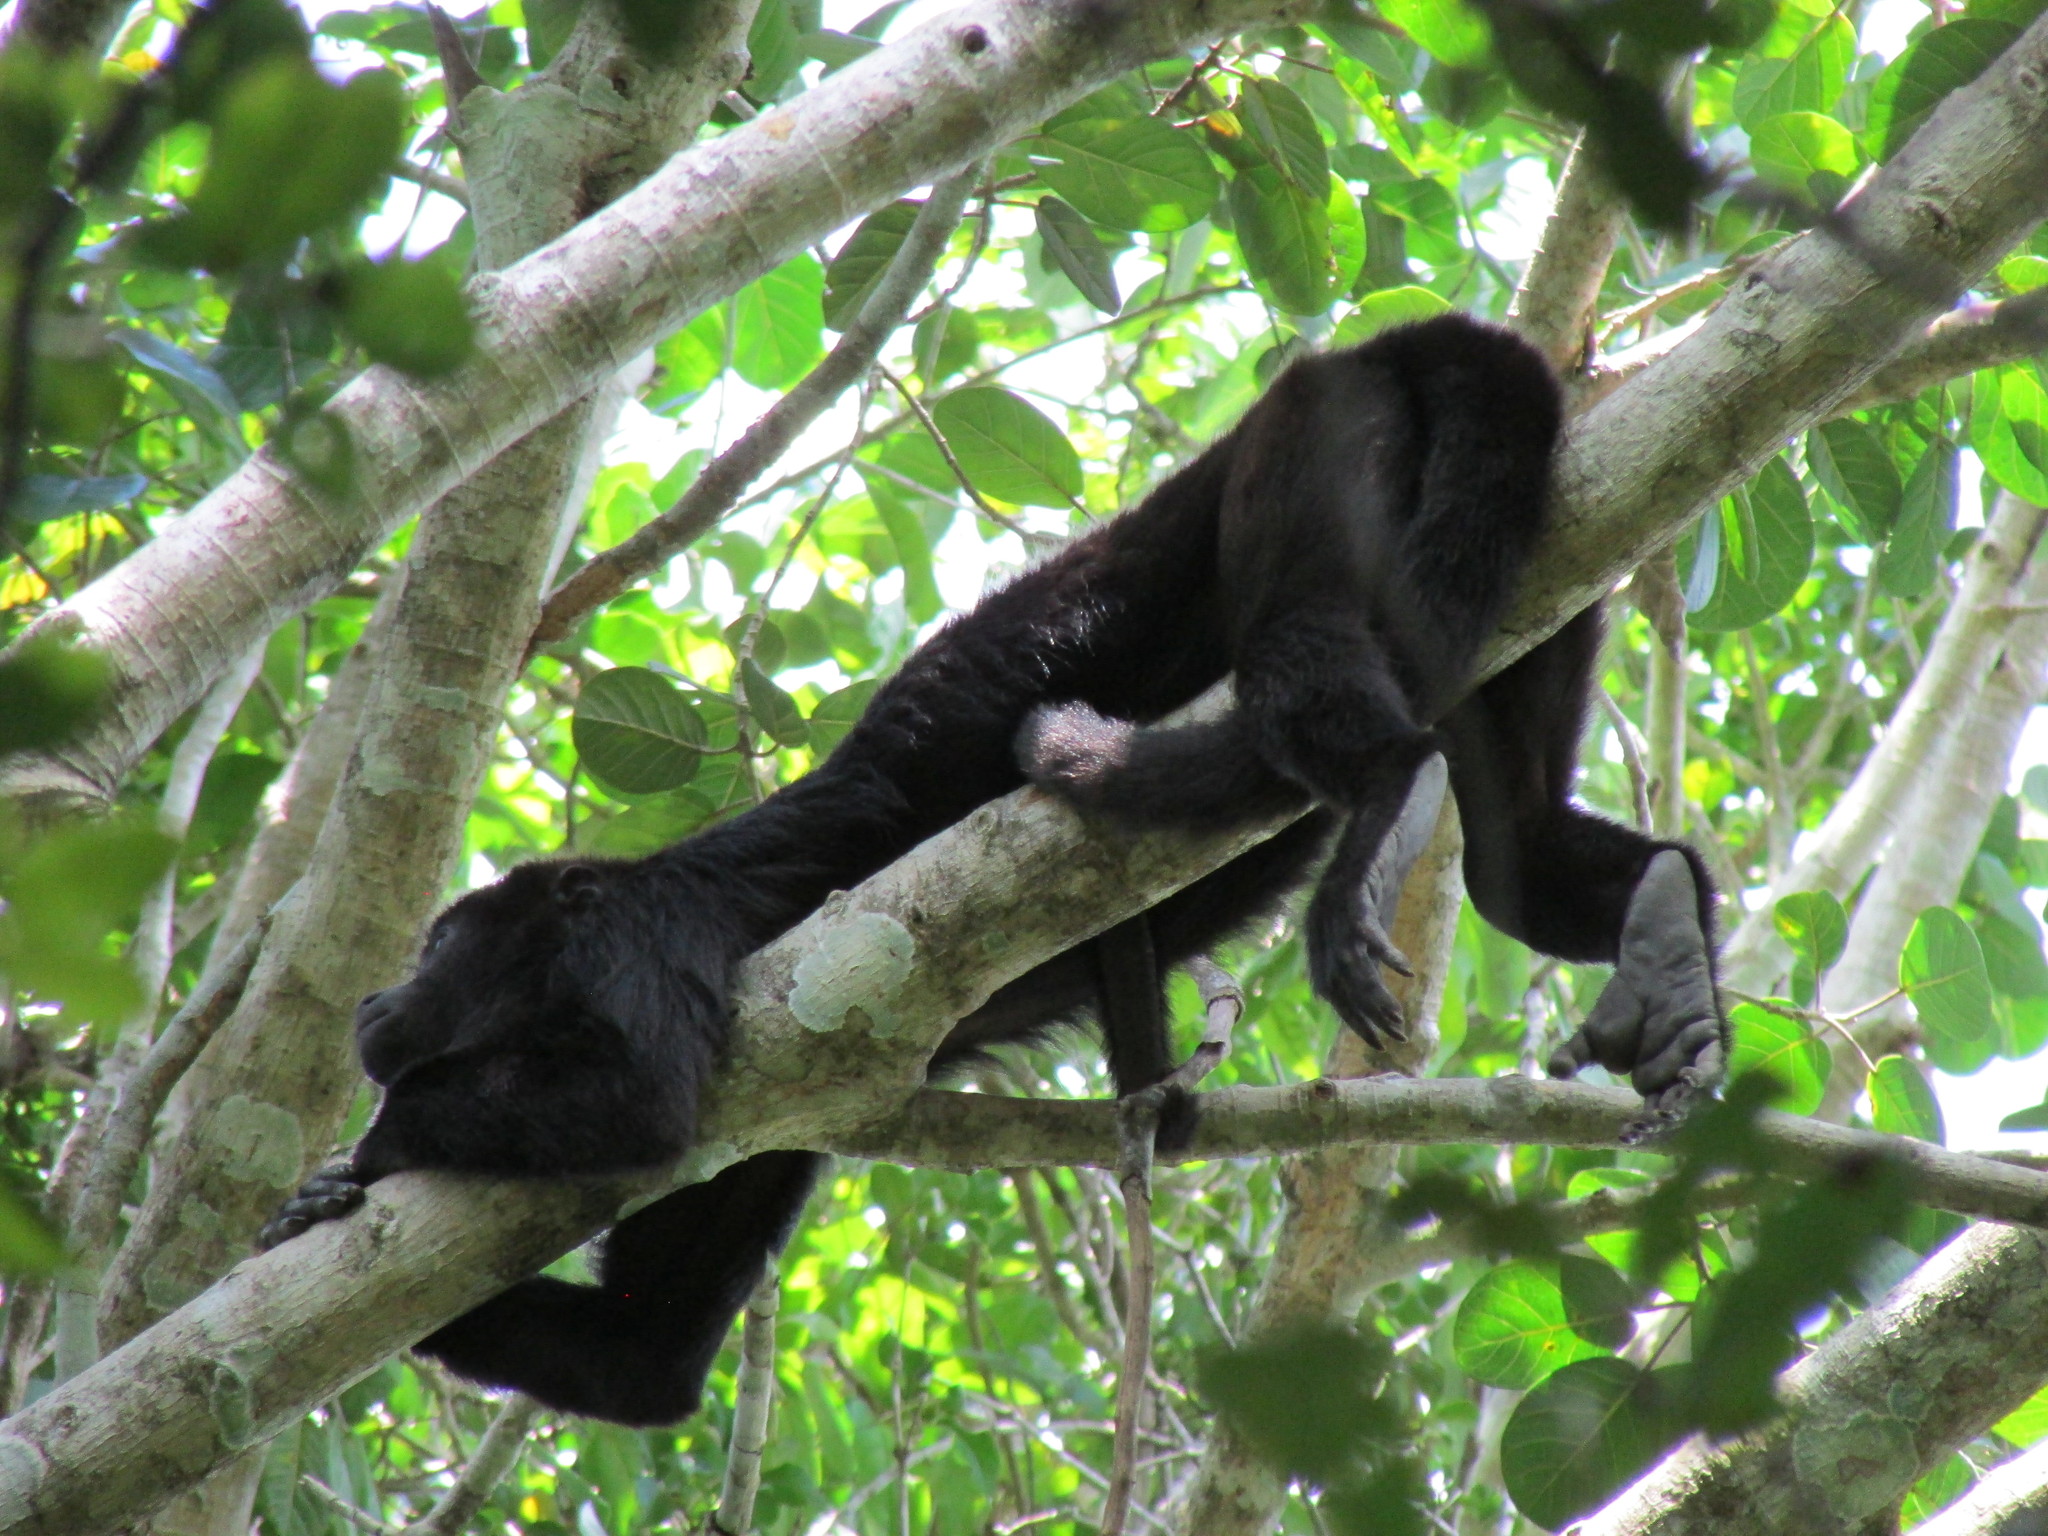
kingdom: Animalia
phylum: Chordata
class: Mammalia
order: Primates
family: Atelidae
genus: Alouatta
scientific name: Alouatta pigra
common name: Guatemalan black howler
